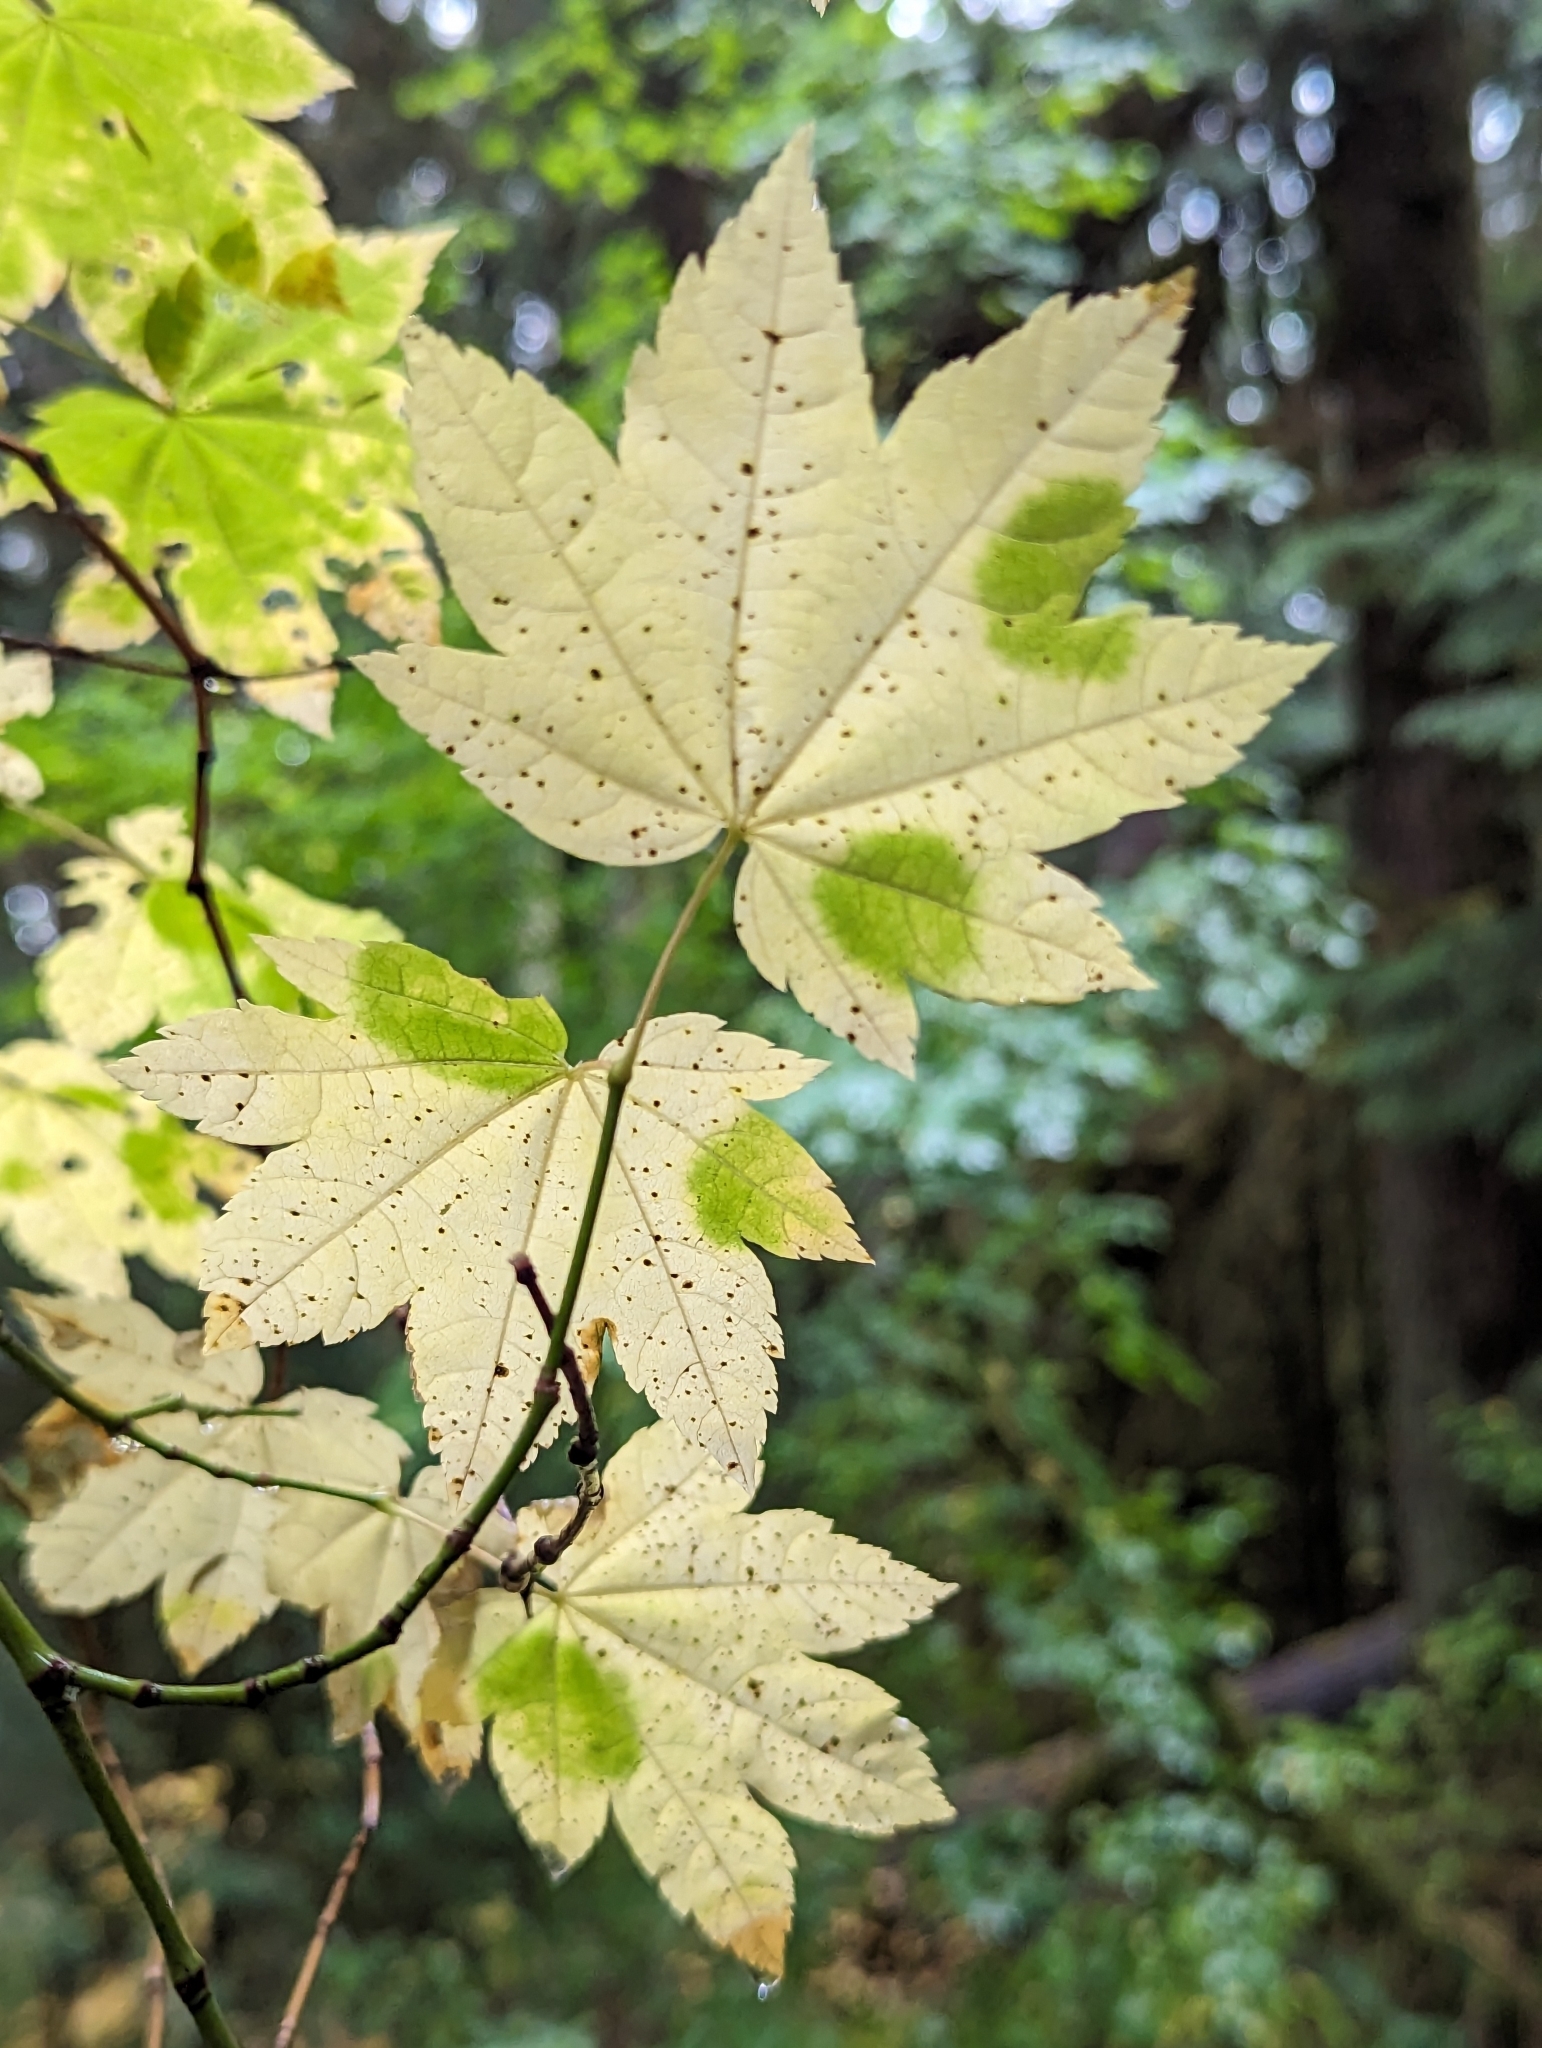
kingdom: Plantae
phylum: Tracheophyta
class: Magnoliopsida
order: Sapindales
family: Sapindaceae
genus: Acer
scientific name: Acer circinatum
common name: Vine maple
